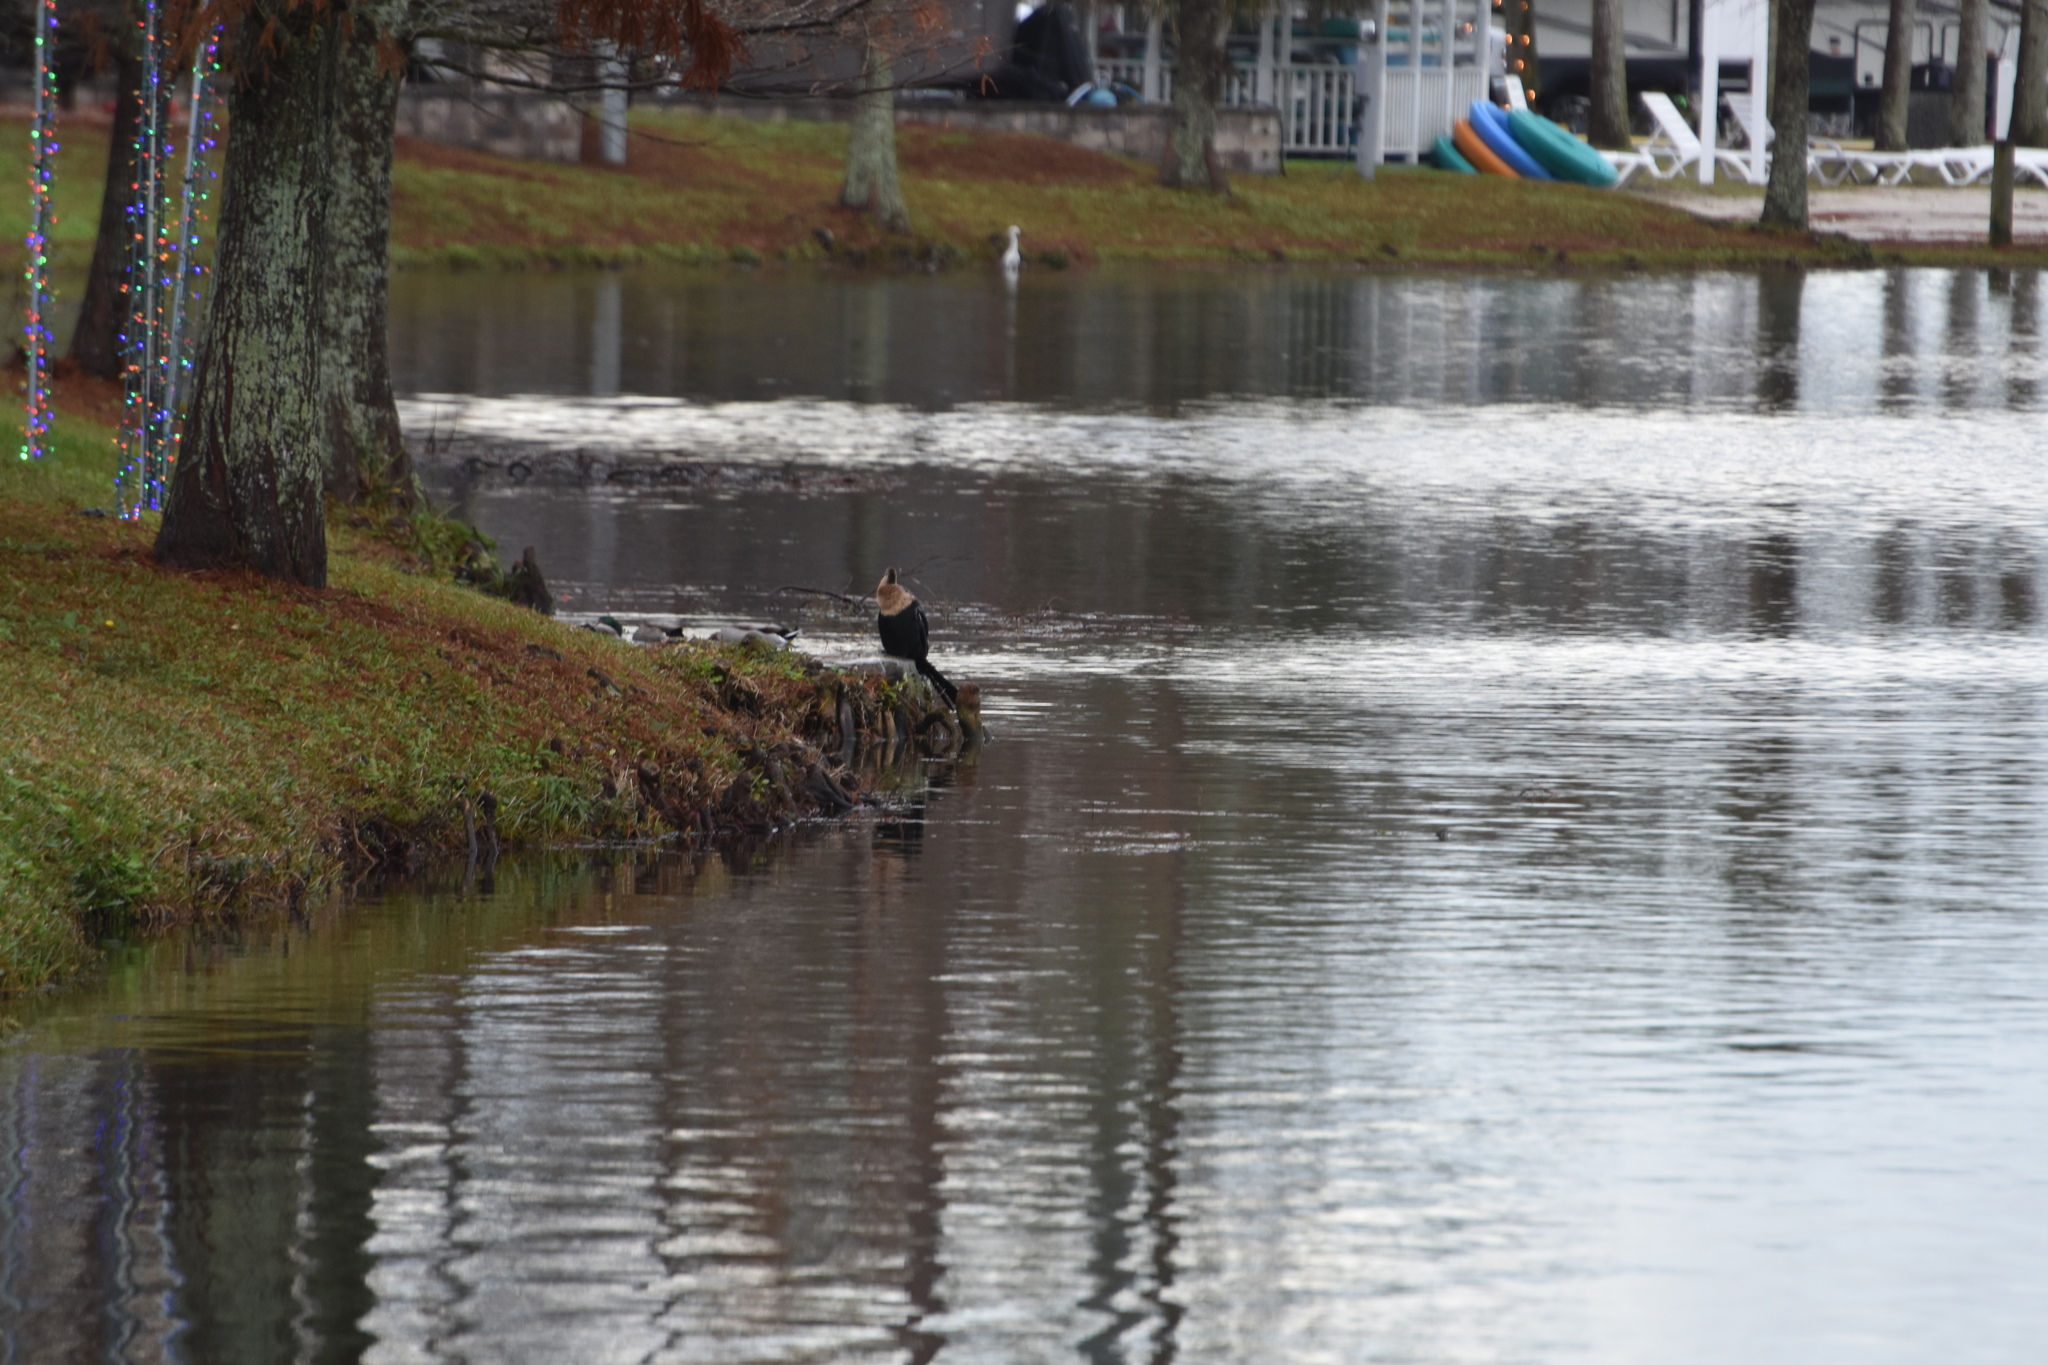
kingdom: Animalia
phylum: Chordata
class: Aves
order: Suliformes
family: Anhingidae
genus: Anhinga
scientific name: Anhinga anhinga
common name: Anhinga
